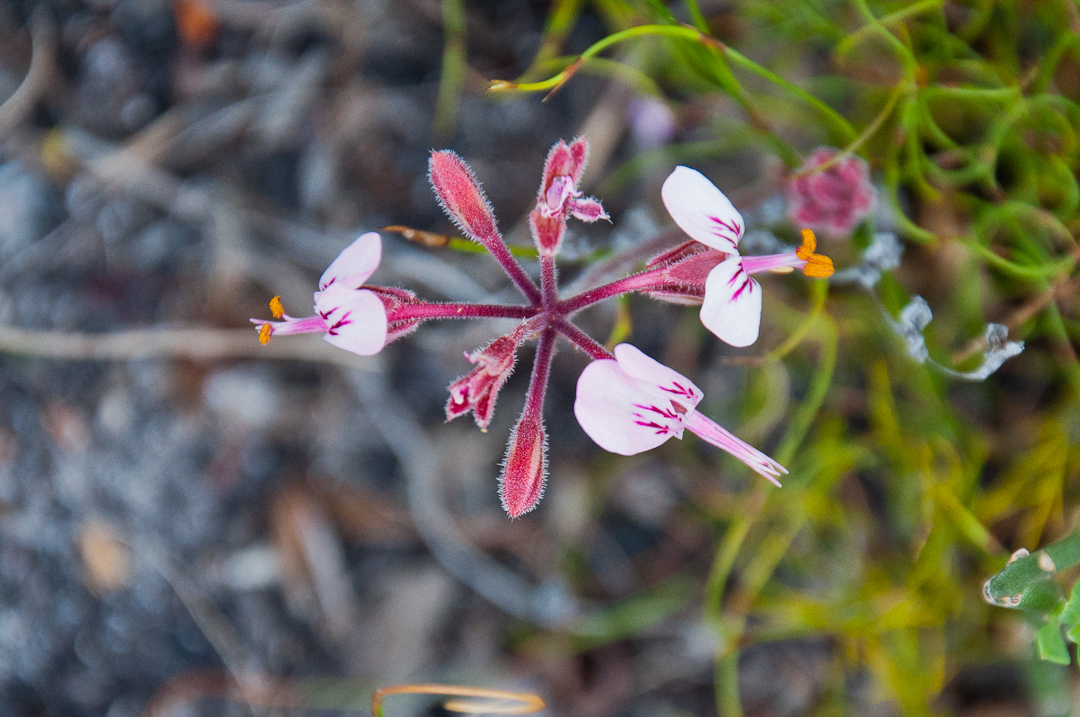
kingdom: Plantae
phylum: Tracheophyta
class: Magnoliopsida
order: Geraniales
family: Geraniaceae
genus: Pelargonium
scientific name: Pelargonium dipetalum
